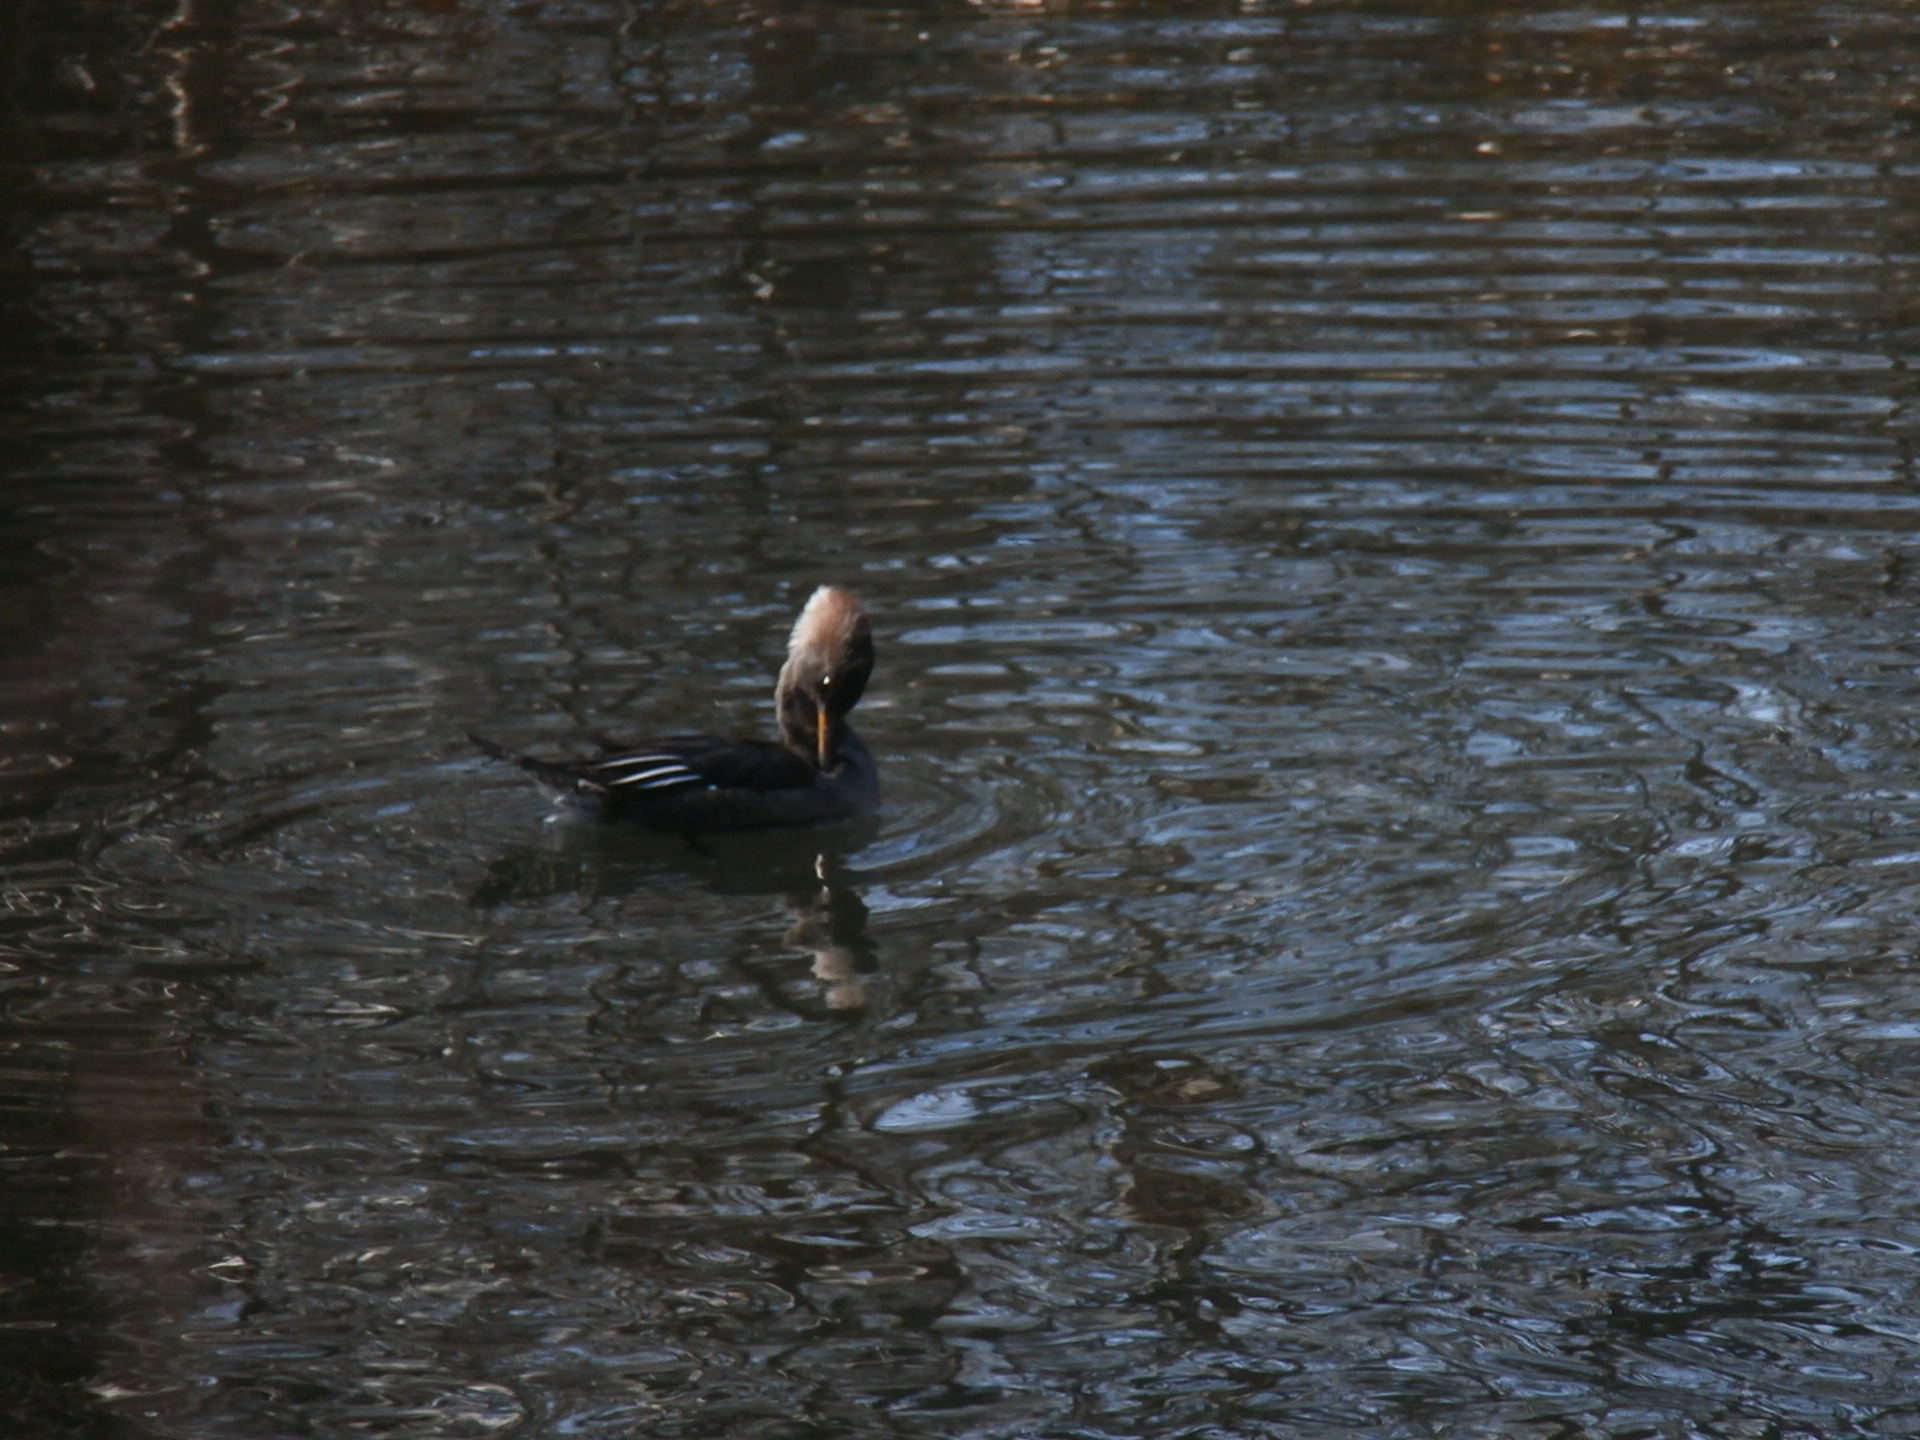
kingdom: Animalia
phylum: Chordata
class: Aves
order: Anseriformes
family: Anatidae
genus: Lophodytes
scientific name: Lophodytes cucullatus
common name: Hooded merganser
